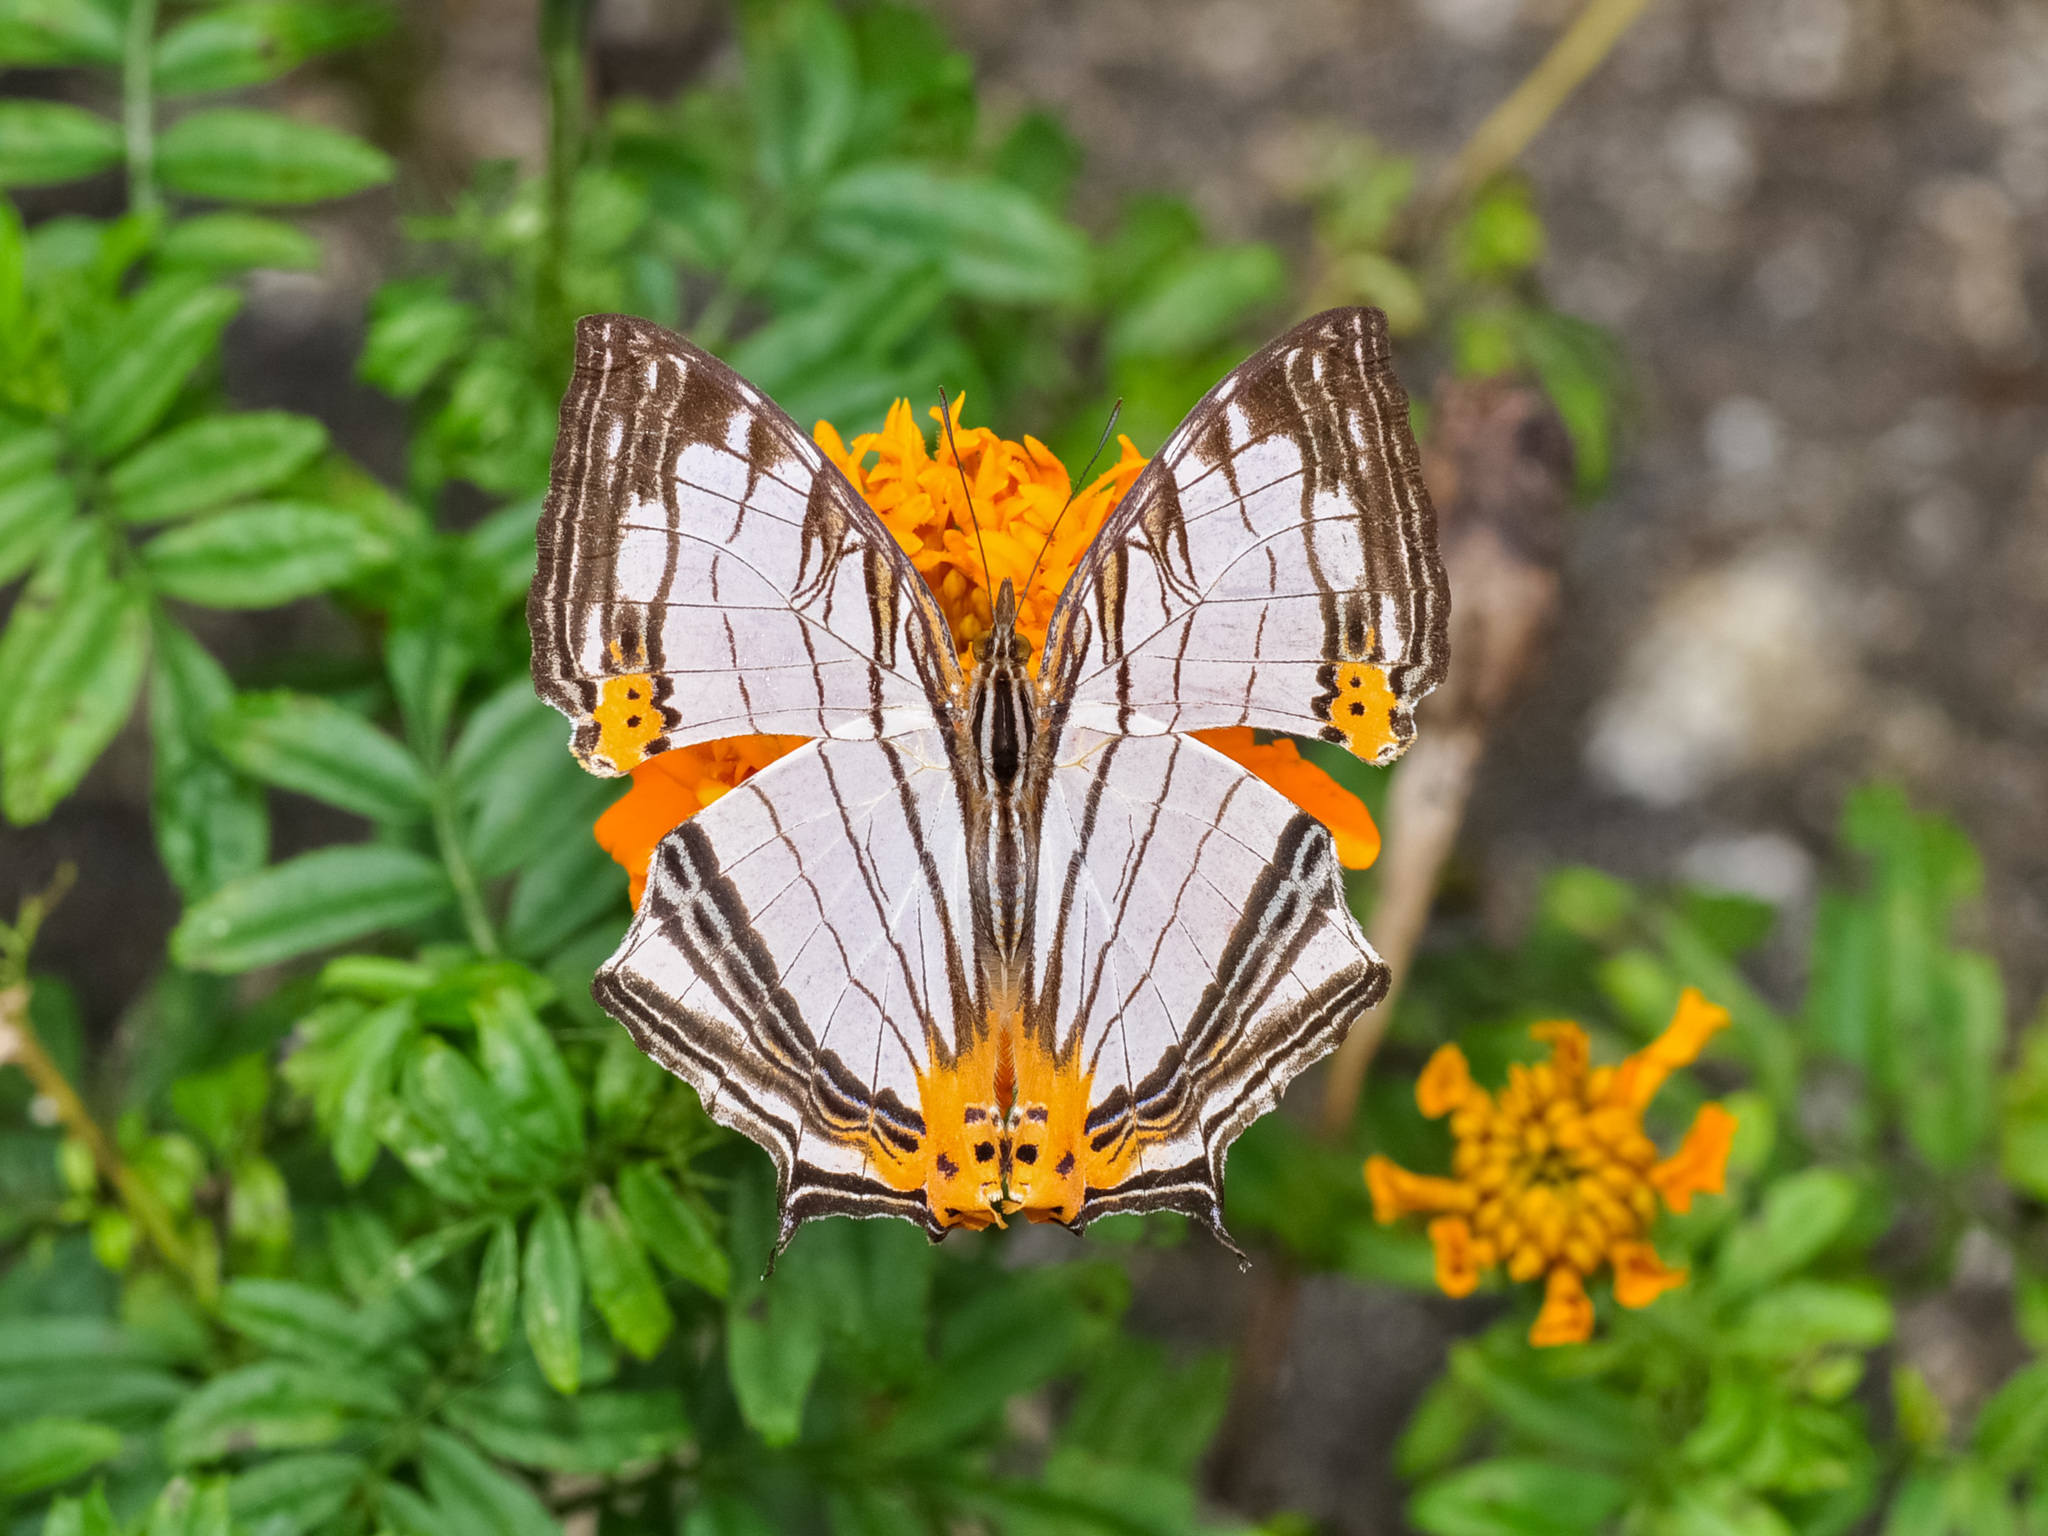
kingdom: Animalia
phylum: Arthropoda
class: Insecta
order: Lepidoptera
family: Nymphalidae
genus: Cyrestis
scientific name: Cyrestis maenalis
